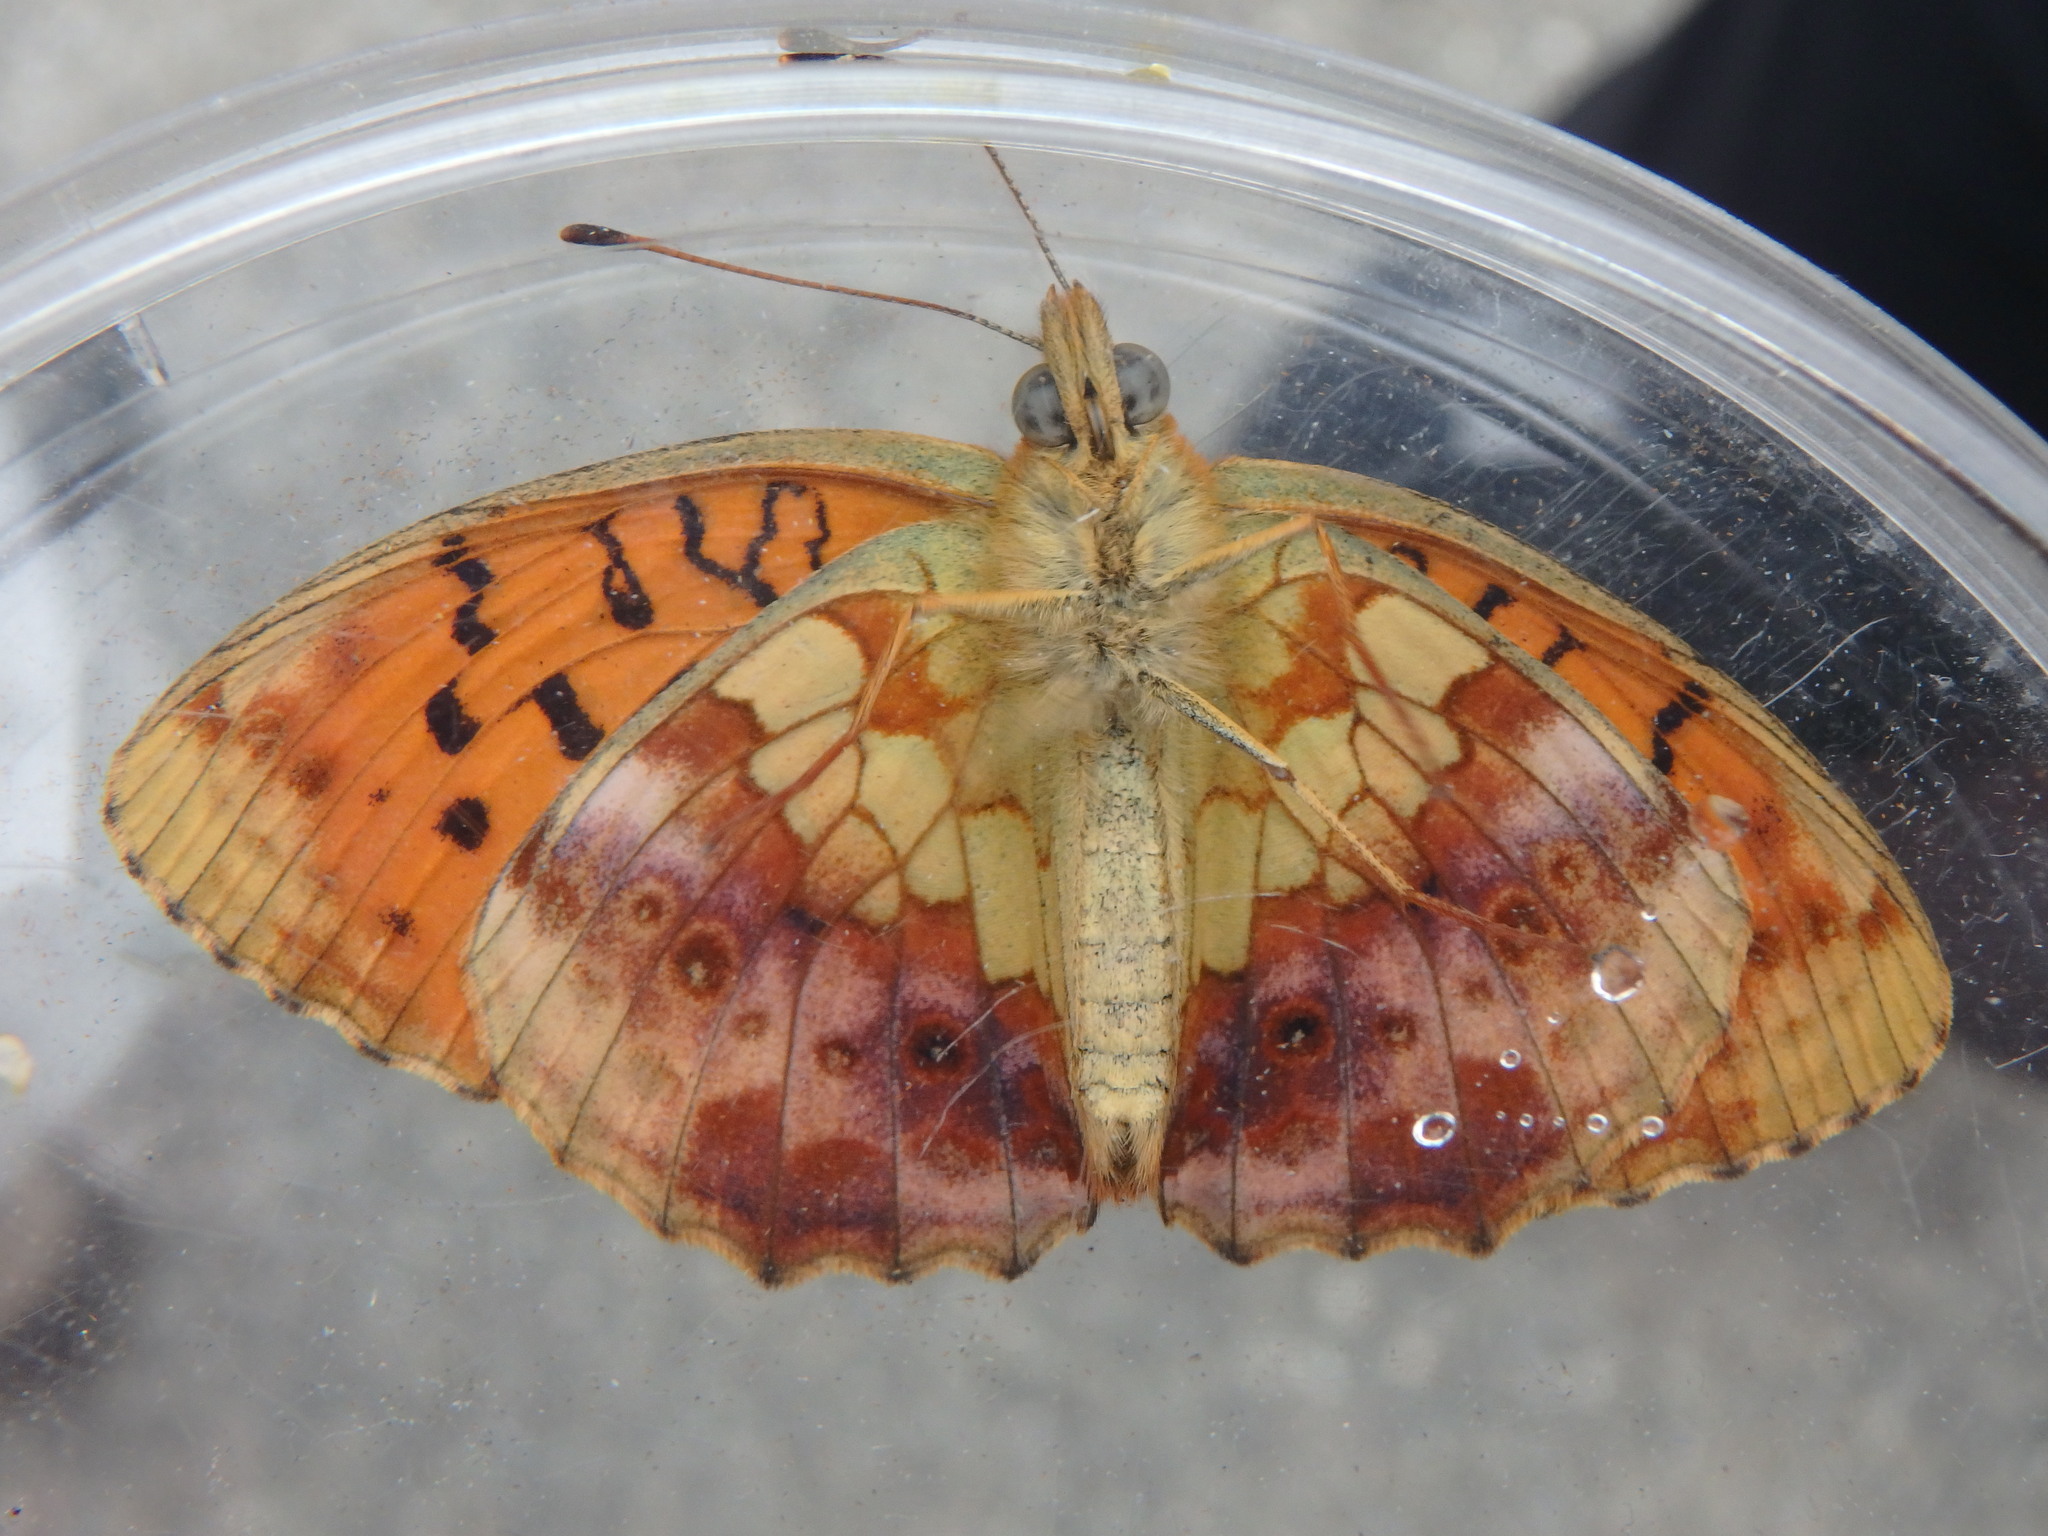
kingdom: Animalia
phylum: Arthropoda
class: Insecta
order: Lepidoptera
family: Nymphalidae
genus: Brenthis
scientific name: Brenthis daphne
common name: Marbled fritillary
